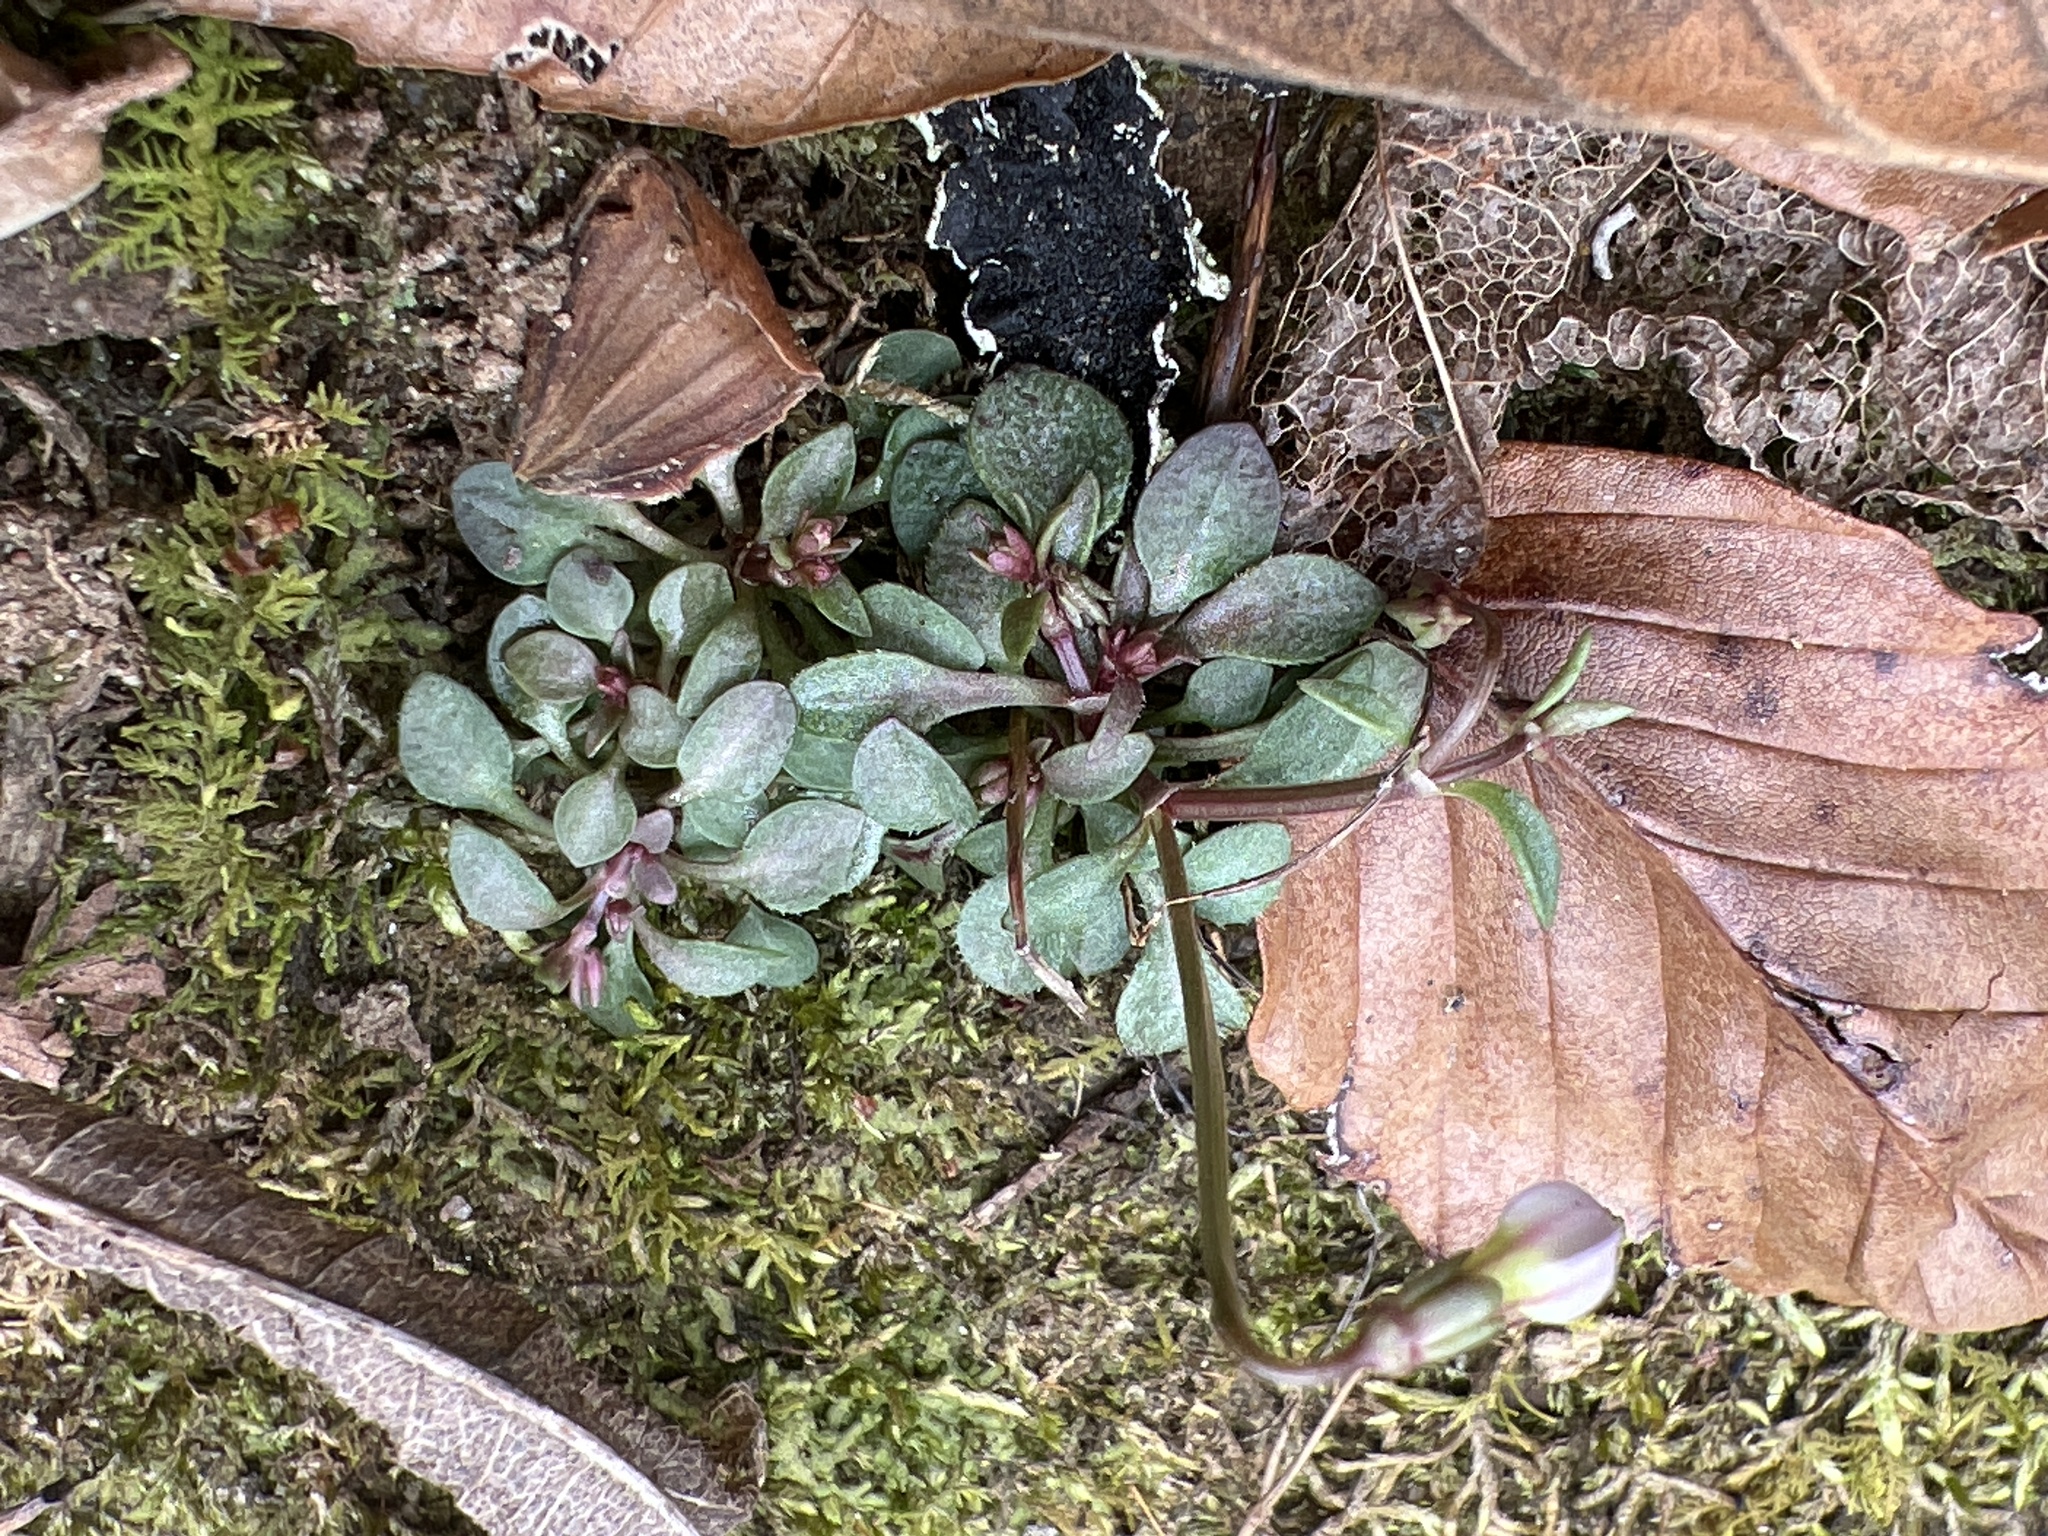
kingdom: Plantae
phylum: Tracheophyta
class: Magnoliopsida
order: Gentianales
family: Rubiaceae
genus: Houstonia
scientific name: Houstonia caerulea
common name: Bluets
